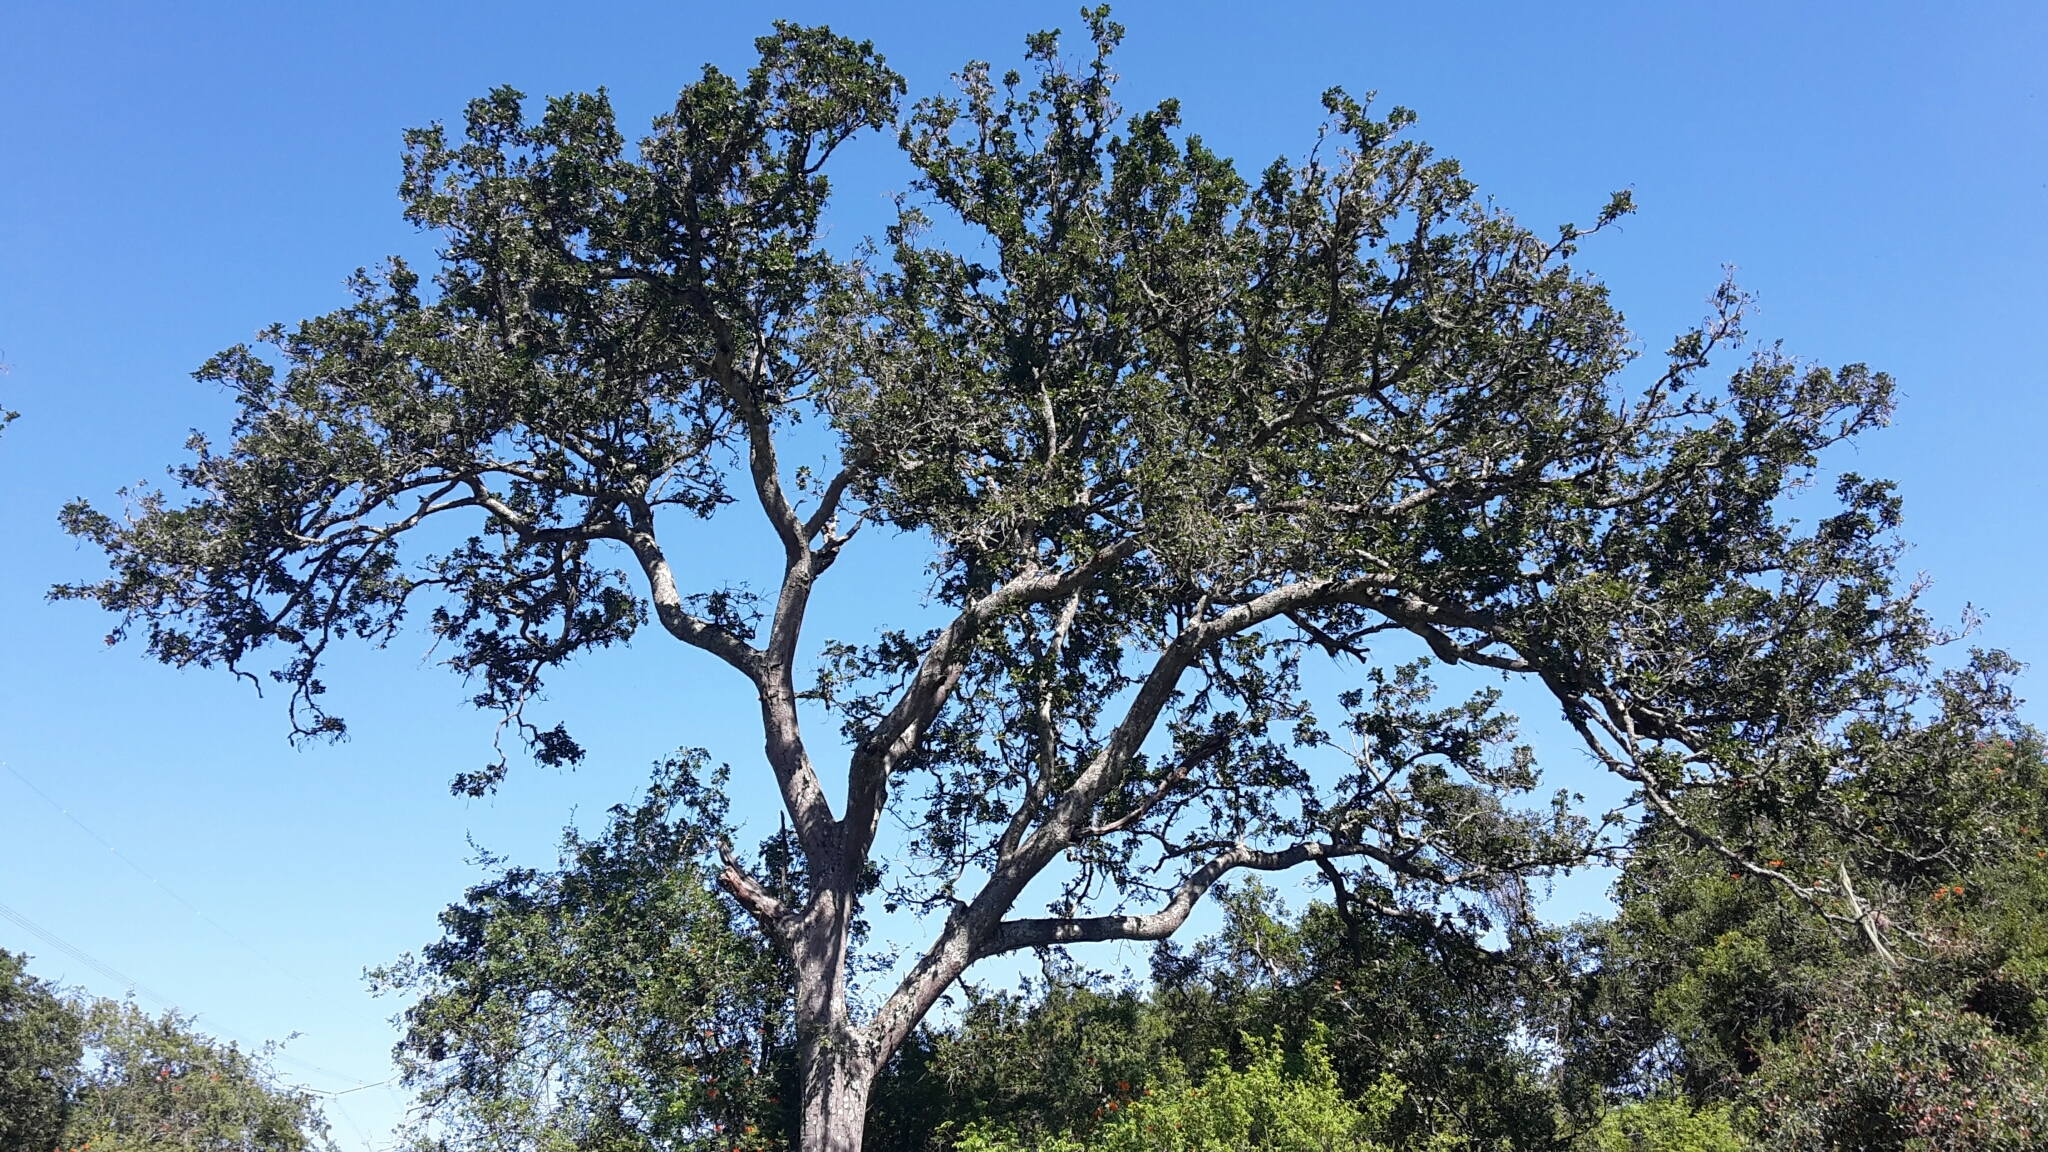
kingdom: Plantae
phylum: Tracheophyta
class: Magnoliopsida
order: Fabales
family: Fabaceae
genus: Schotia
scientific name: Schotia latifolia
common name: Bush boer-bean
